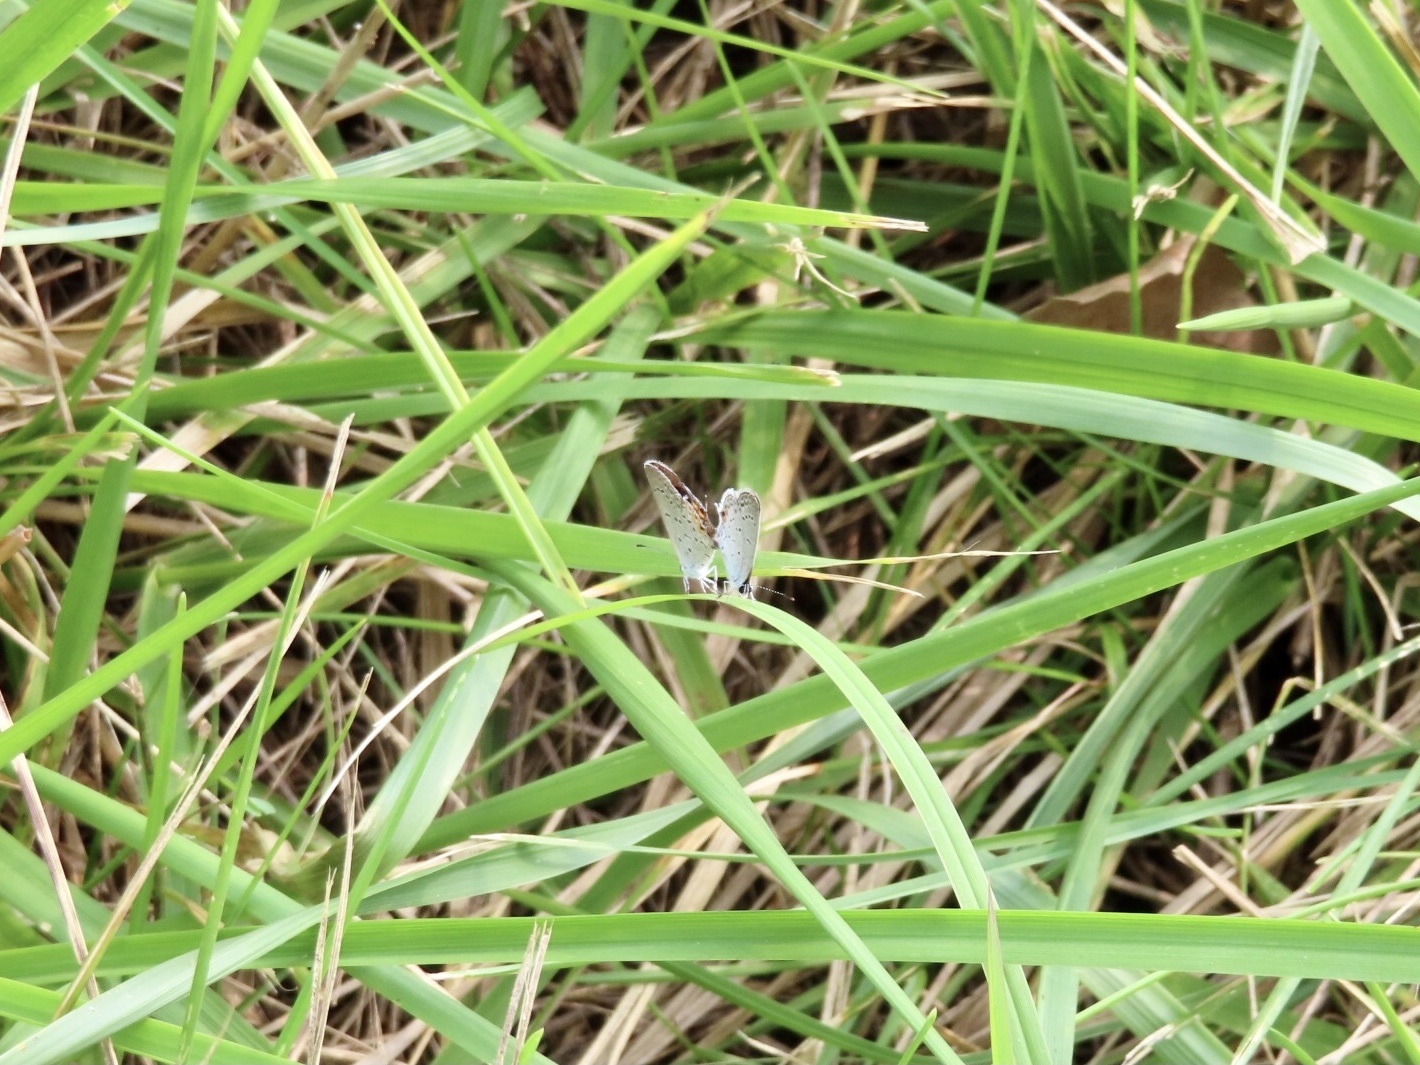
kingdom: Animalia
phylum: Arthropoda
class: Insecta
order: Lepidoptera
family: Lycaenidae
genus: Elkalyce
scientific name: Elkalyce comyntas
